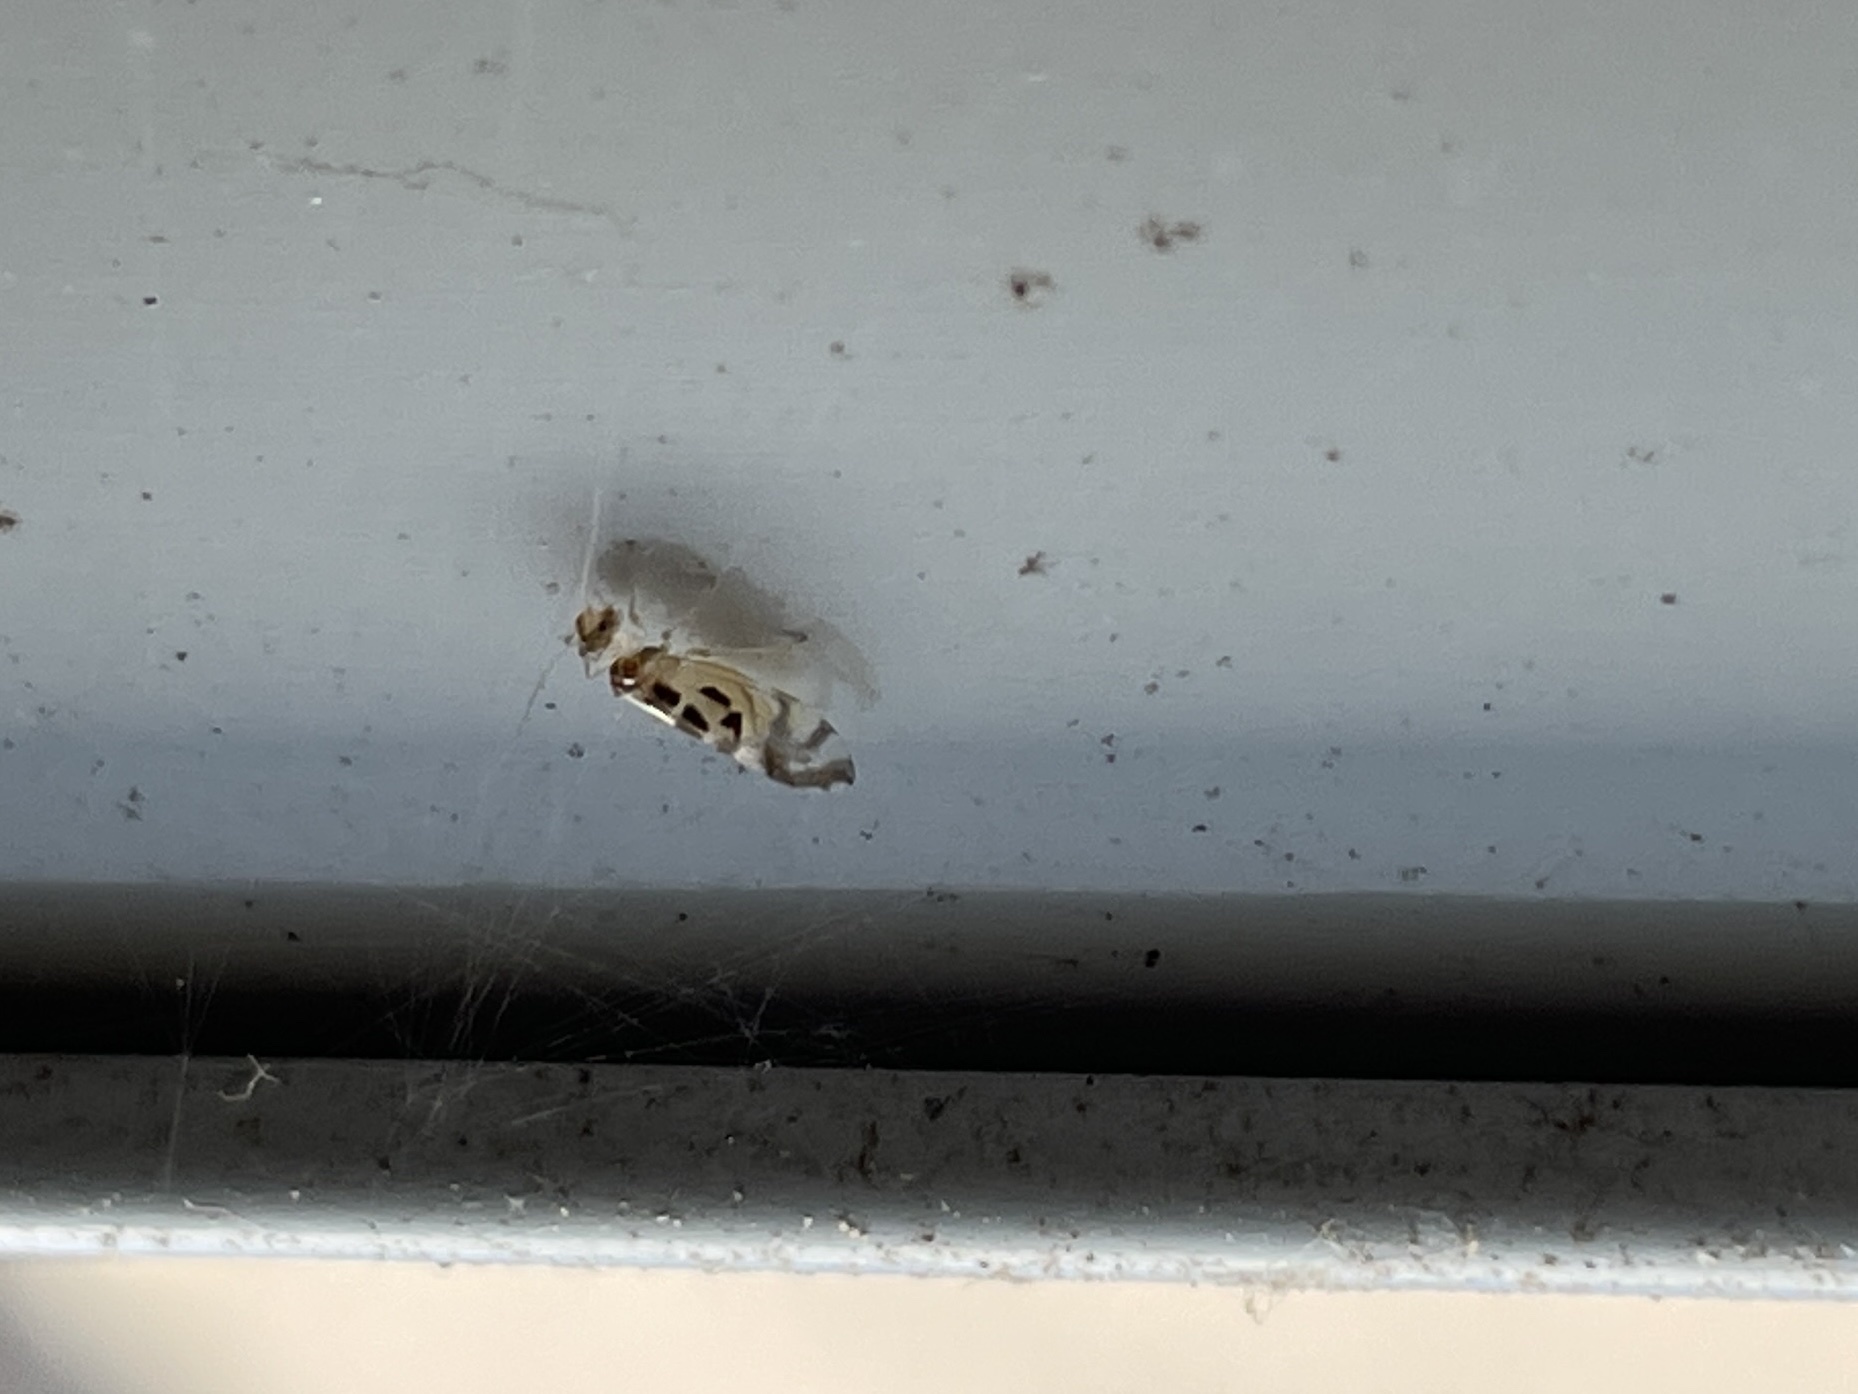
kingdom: Animalia
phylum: Arthropoda
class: Insecta
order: Psocodea
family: Stenopsocidae
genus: Graphopsocus
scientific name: Graphopsocus cruciatus
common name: Lizard bark louse
